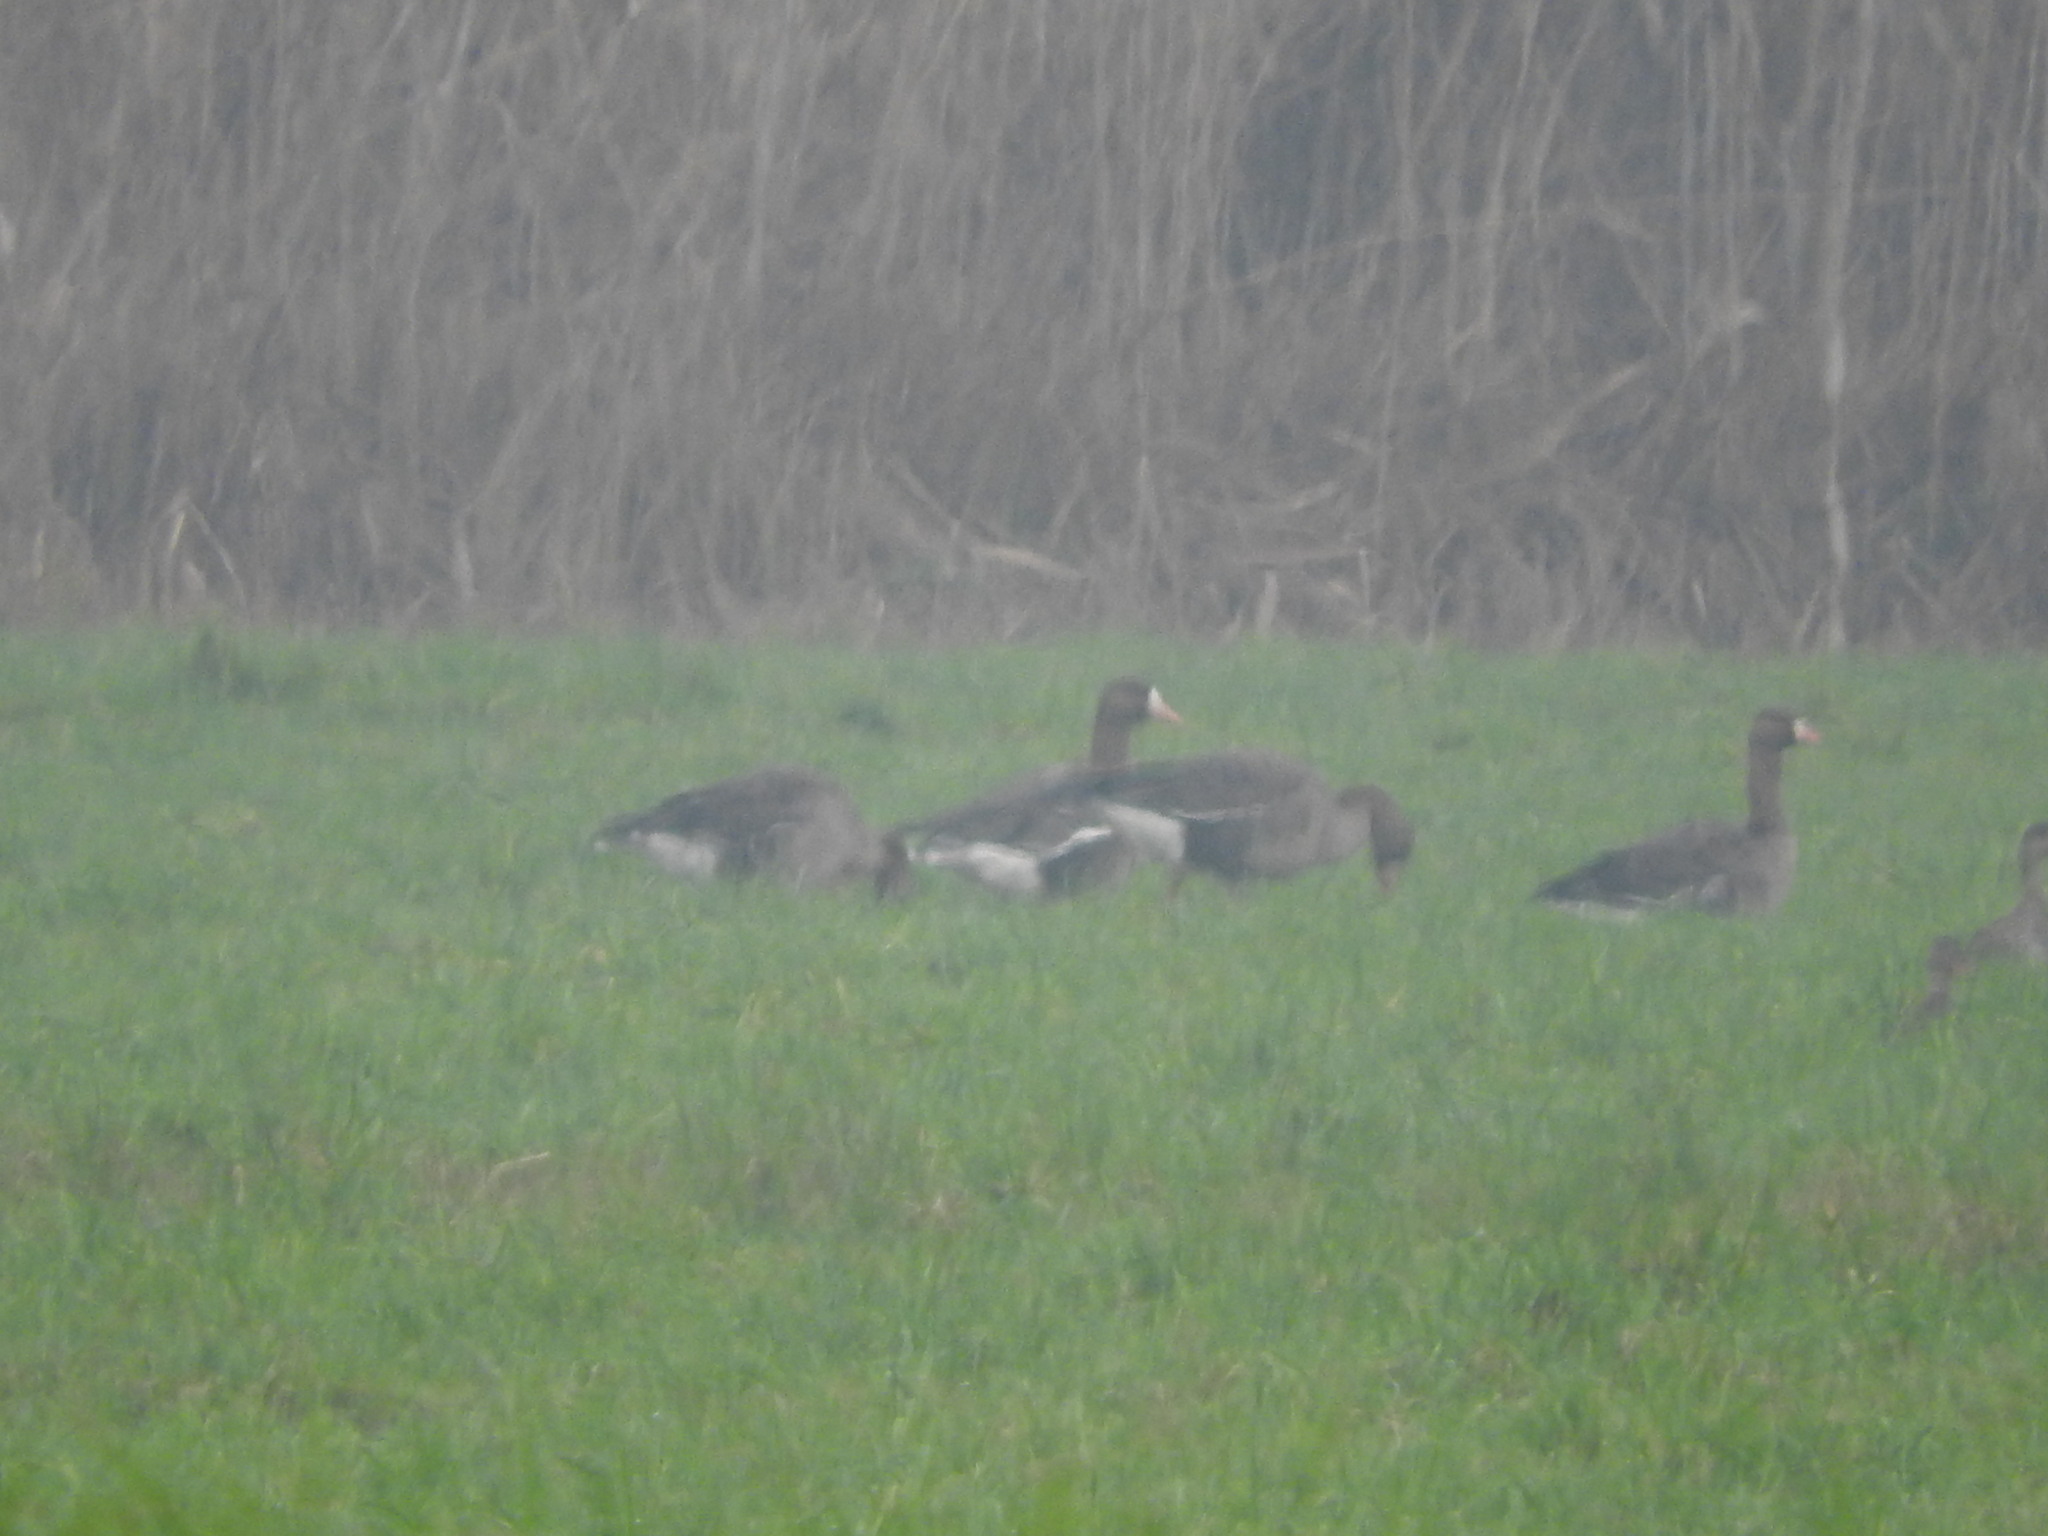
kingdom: Animalia
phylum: Chordata
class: Aves
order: Anseriformes
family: Anatidae
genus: Anser
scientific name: Anser albifrons
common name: Greater white-fronted goose
